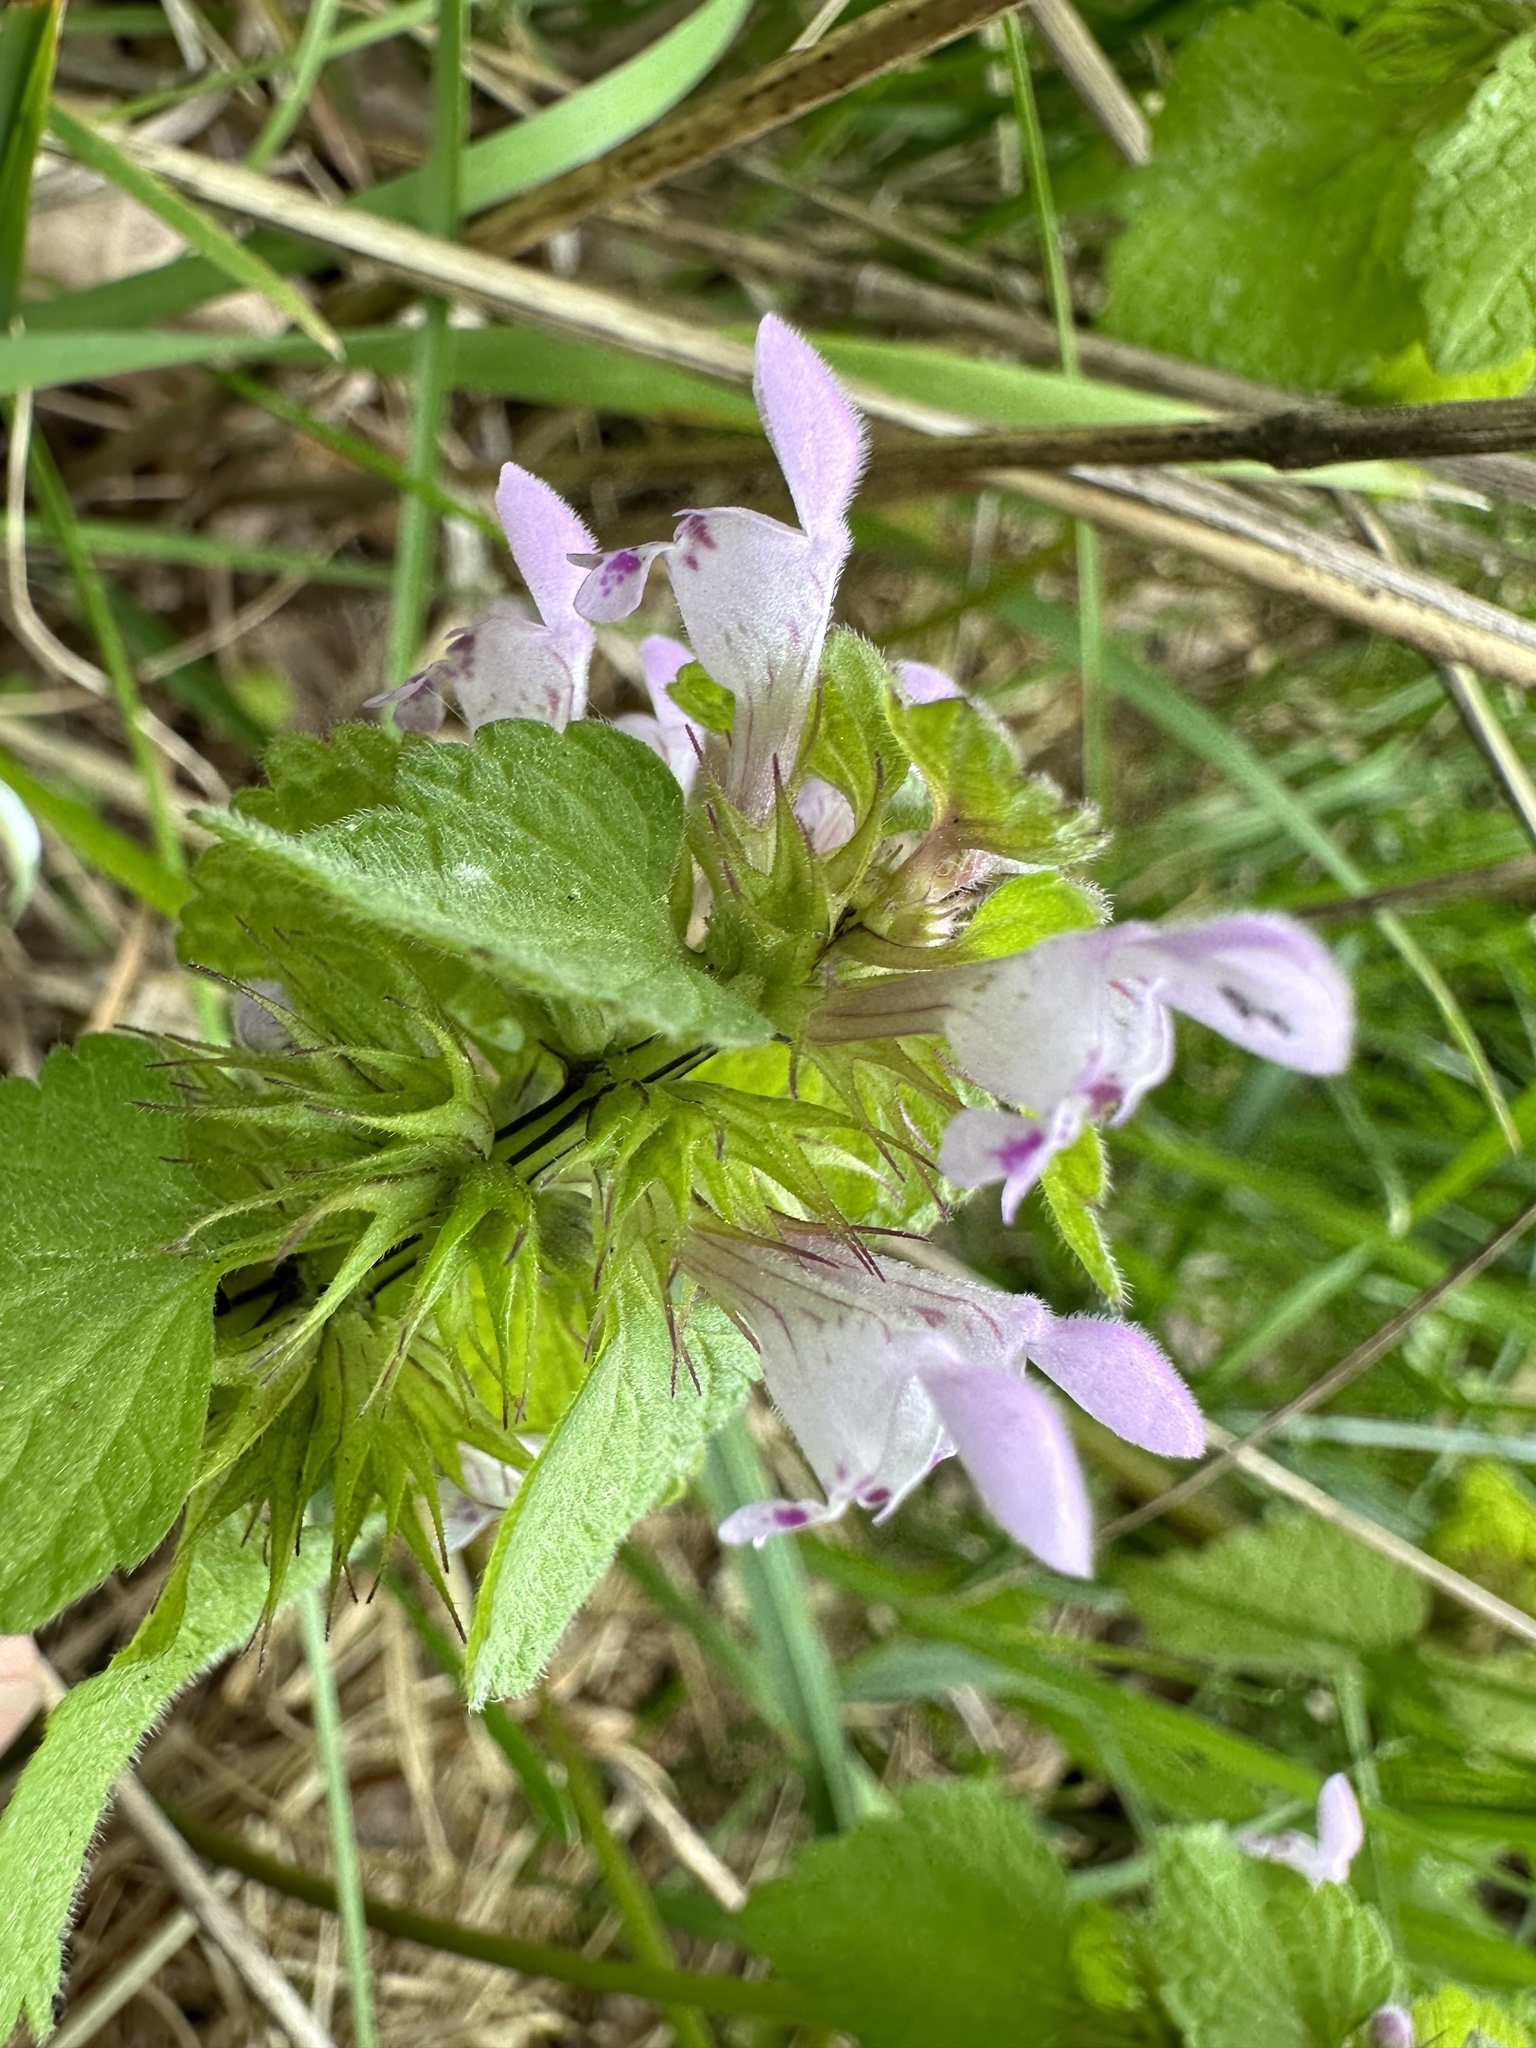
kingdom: Plantae
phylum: Tracheophyta
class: Magnoliopsida
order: Lamiales
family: Lamiaceae
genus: Lamium
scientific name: Lamium purpureum
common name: Red dead-nettle
